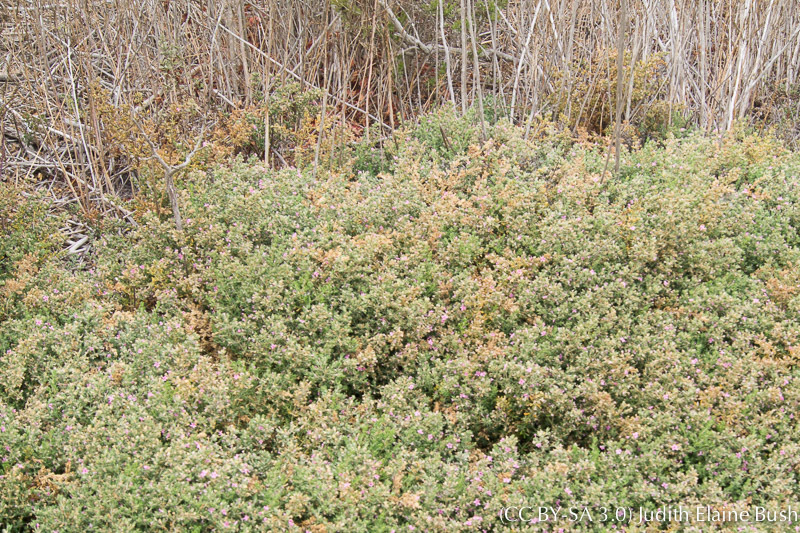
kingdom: Plantae
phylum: Tracheophyta
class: Magnoliopsida
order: Caryophyllales
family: Frankeniaceae
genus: Frankenia
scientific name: Frankenia salina
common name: Alkali seaheath
